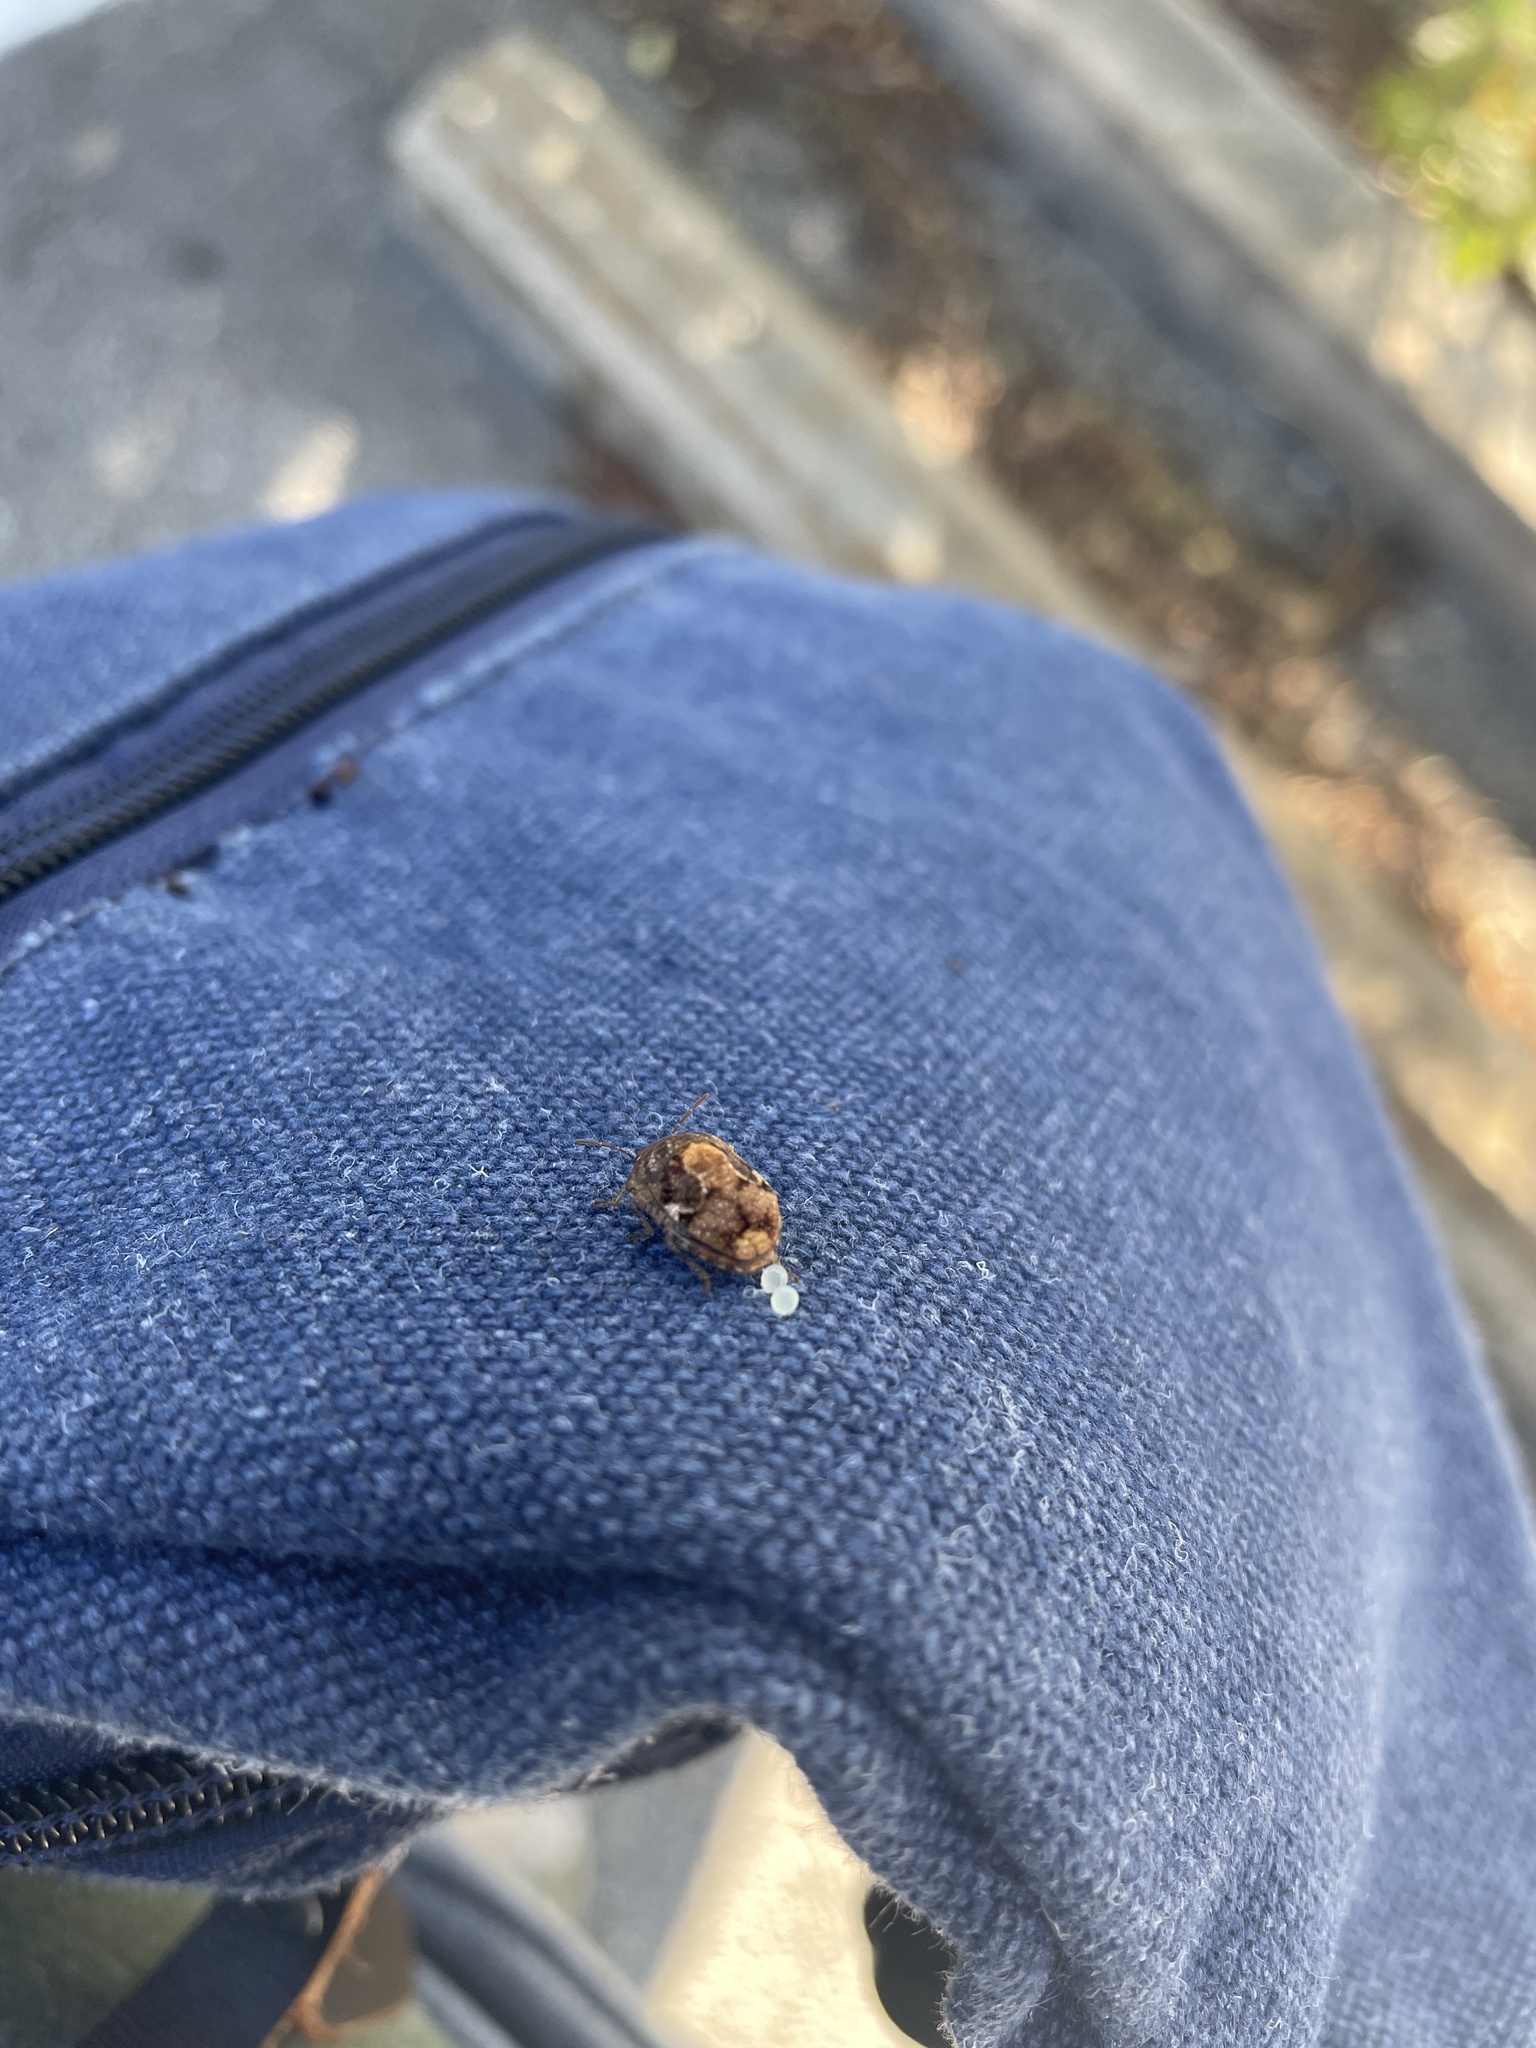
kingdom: Animalia
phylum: Arthropoda
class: Insecta
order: Hemiptera
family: Scutelleridae
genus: Stethaulax
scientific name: Stethaulax marmoratus
